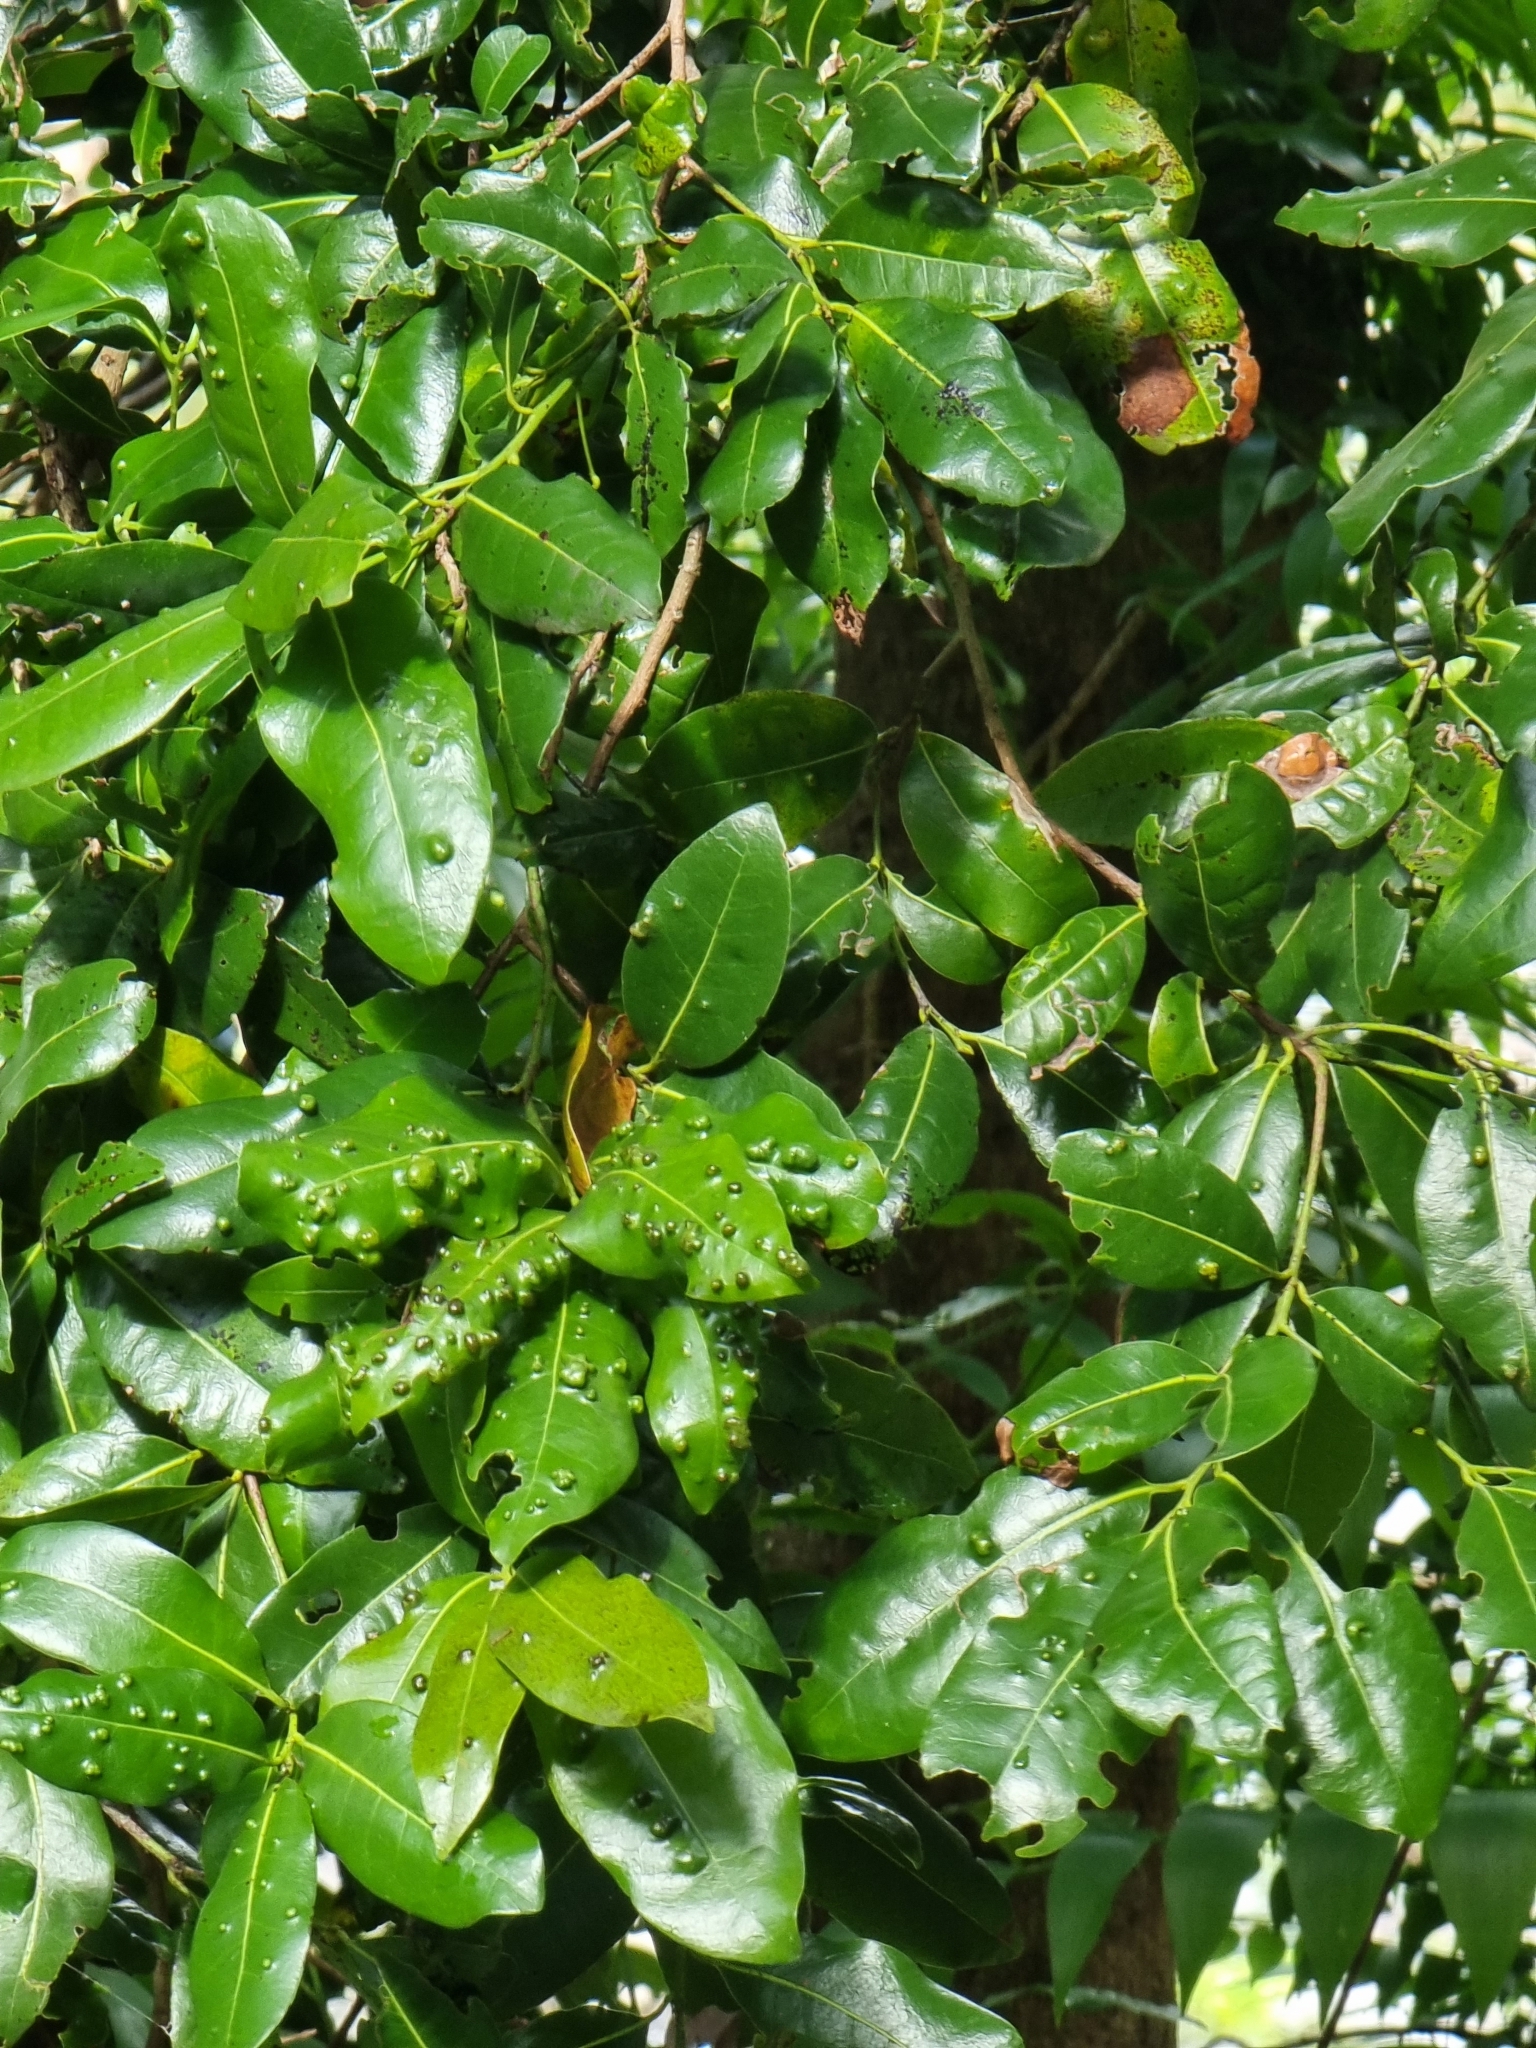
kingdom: Plantae
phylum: Tracheophyta
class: Magnoliopsida
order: Laurales
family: Lauraceae
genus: Apollonias
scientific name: Apollonias barbujana
